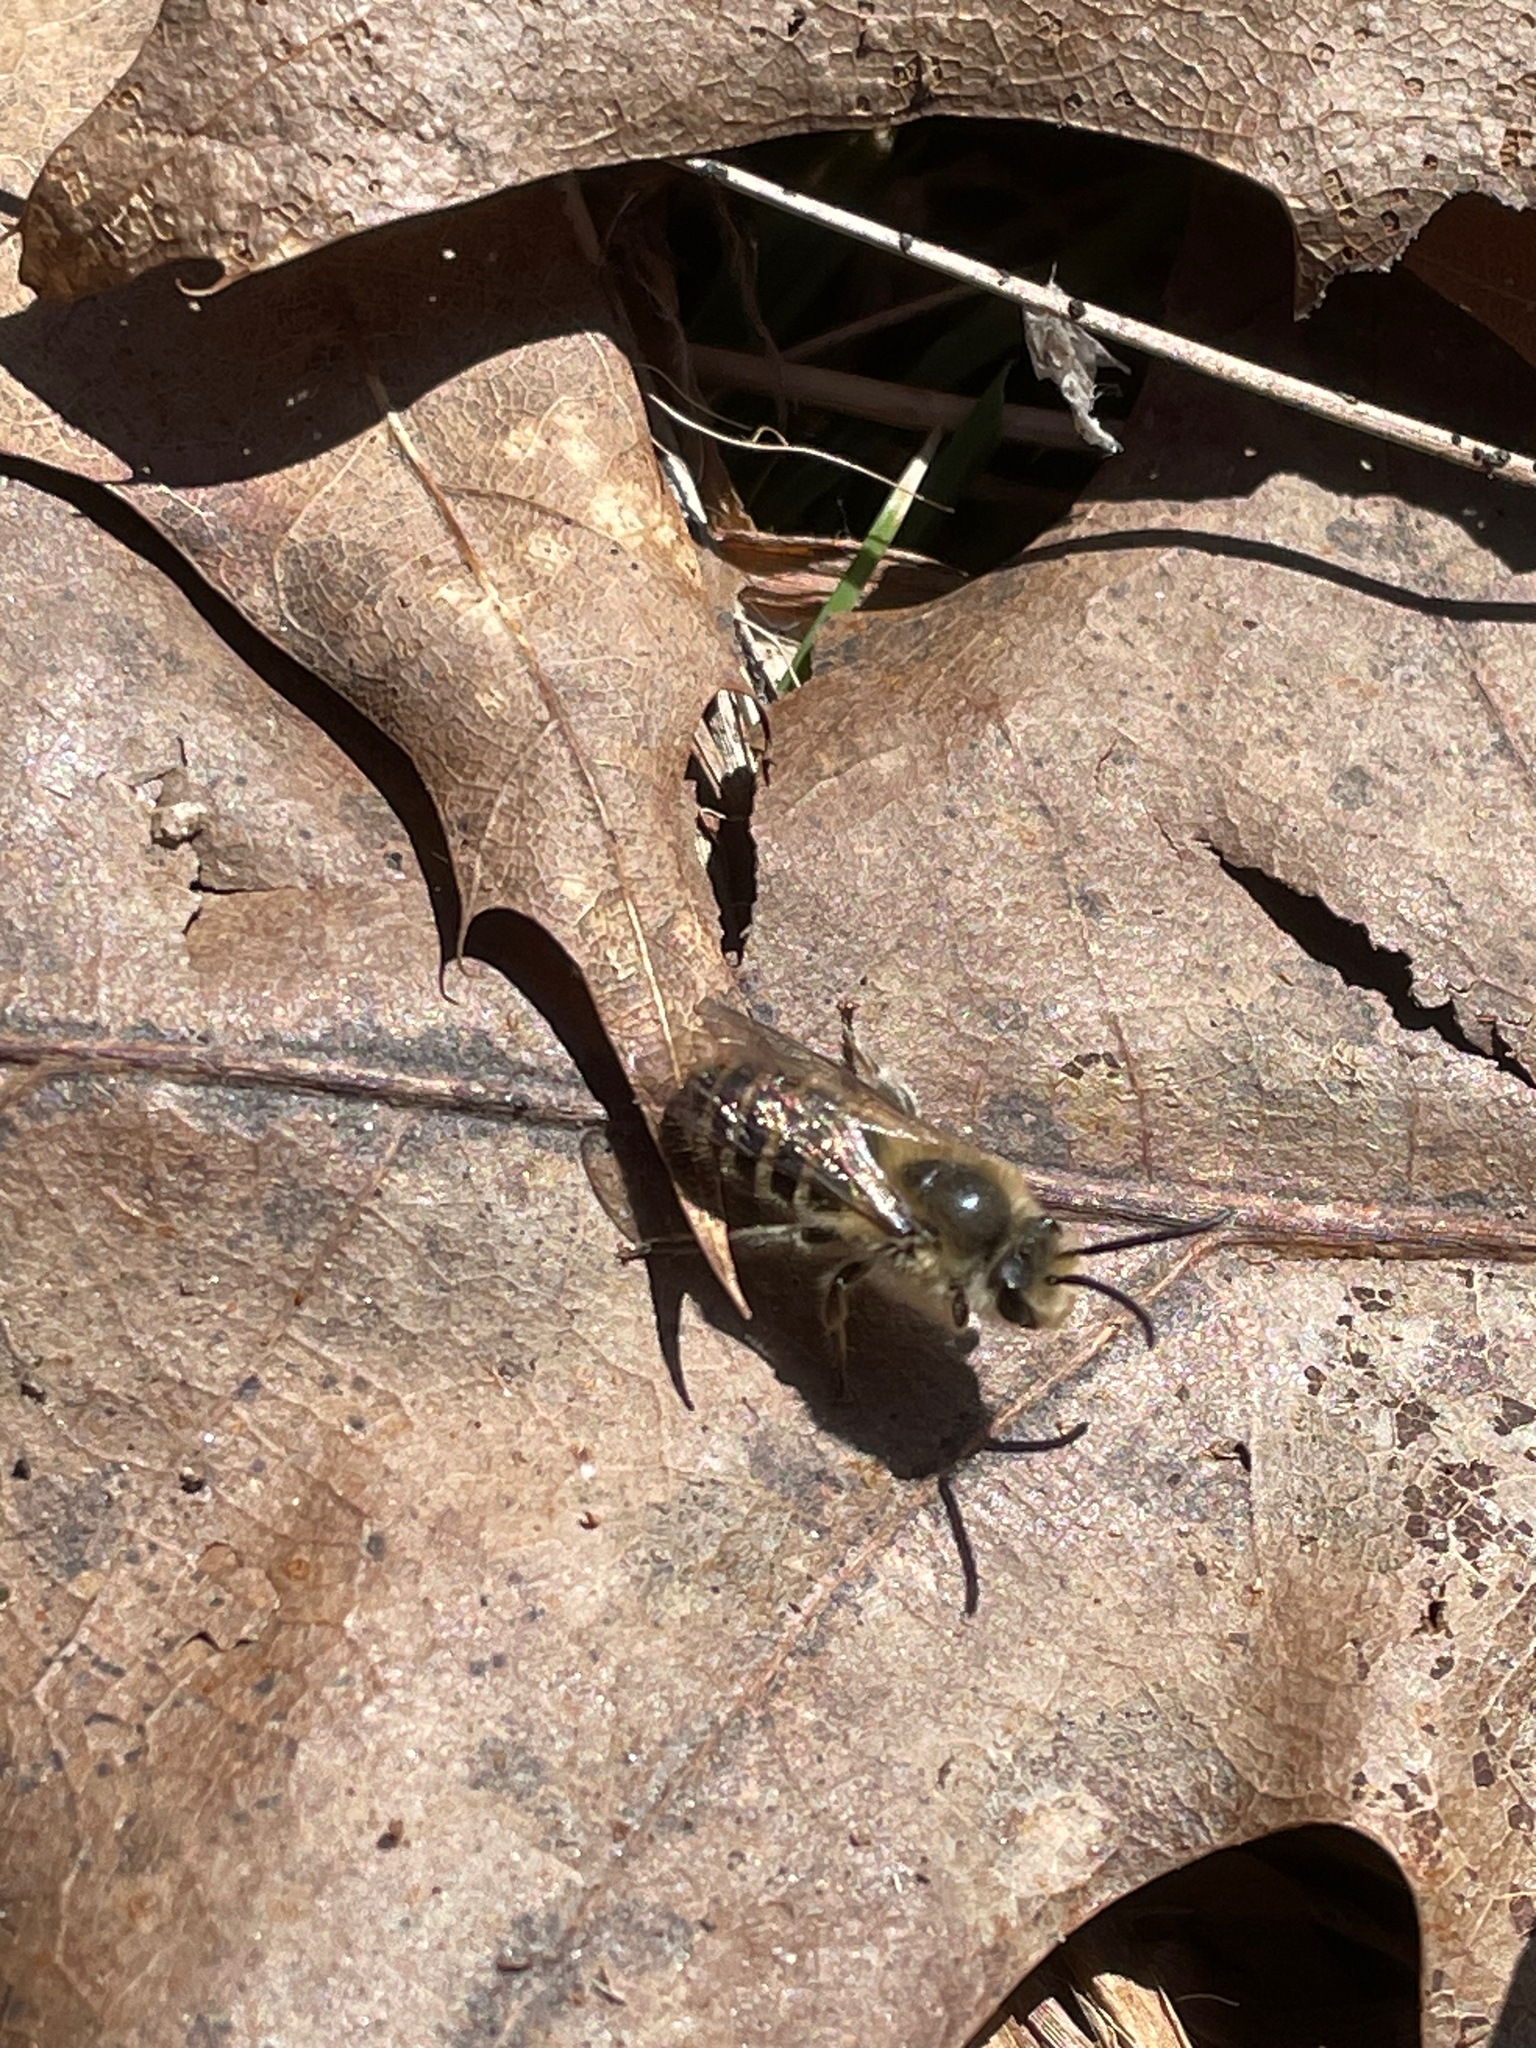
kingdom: Animalia
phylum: Arthropoda
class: Insecta
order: Hymenoptera
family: Colletidae
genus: Colletes
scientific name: Colletes inaequalis
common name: Unequal cellophane bee
